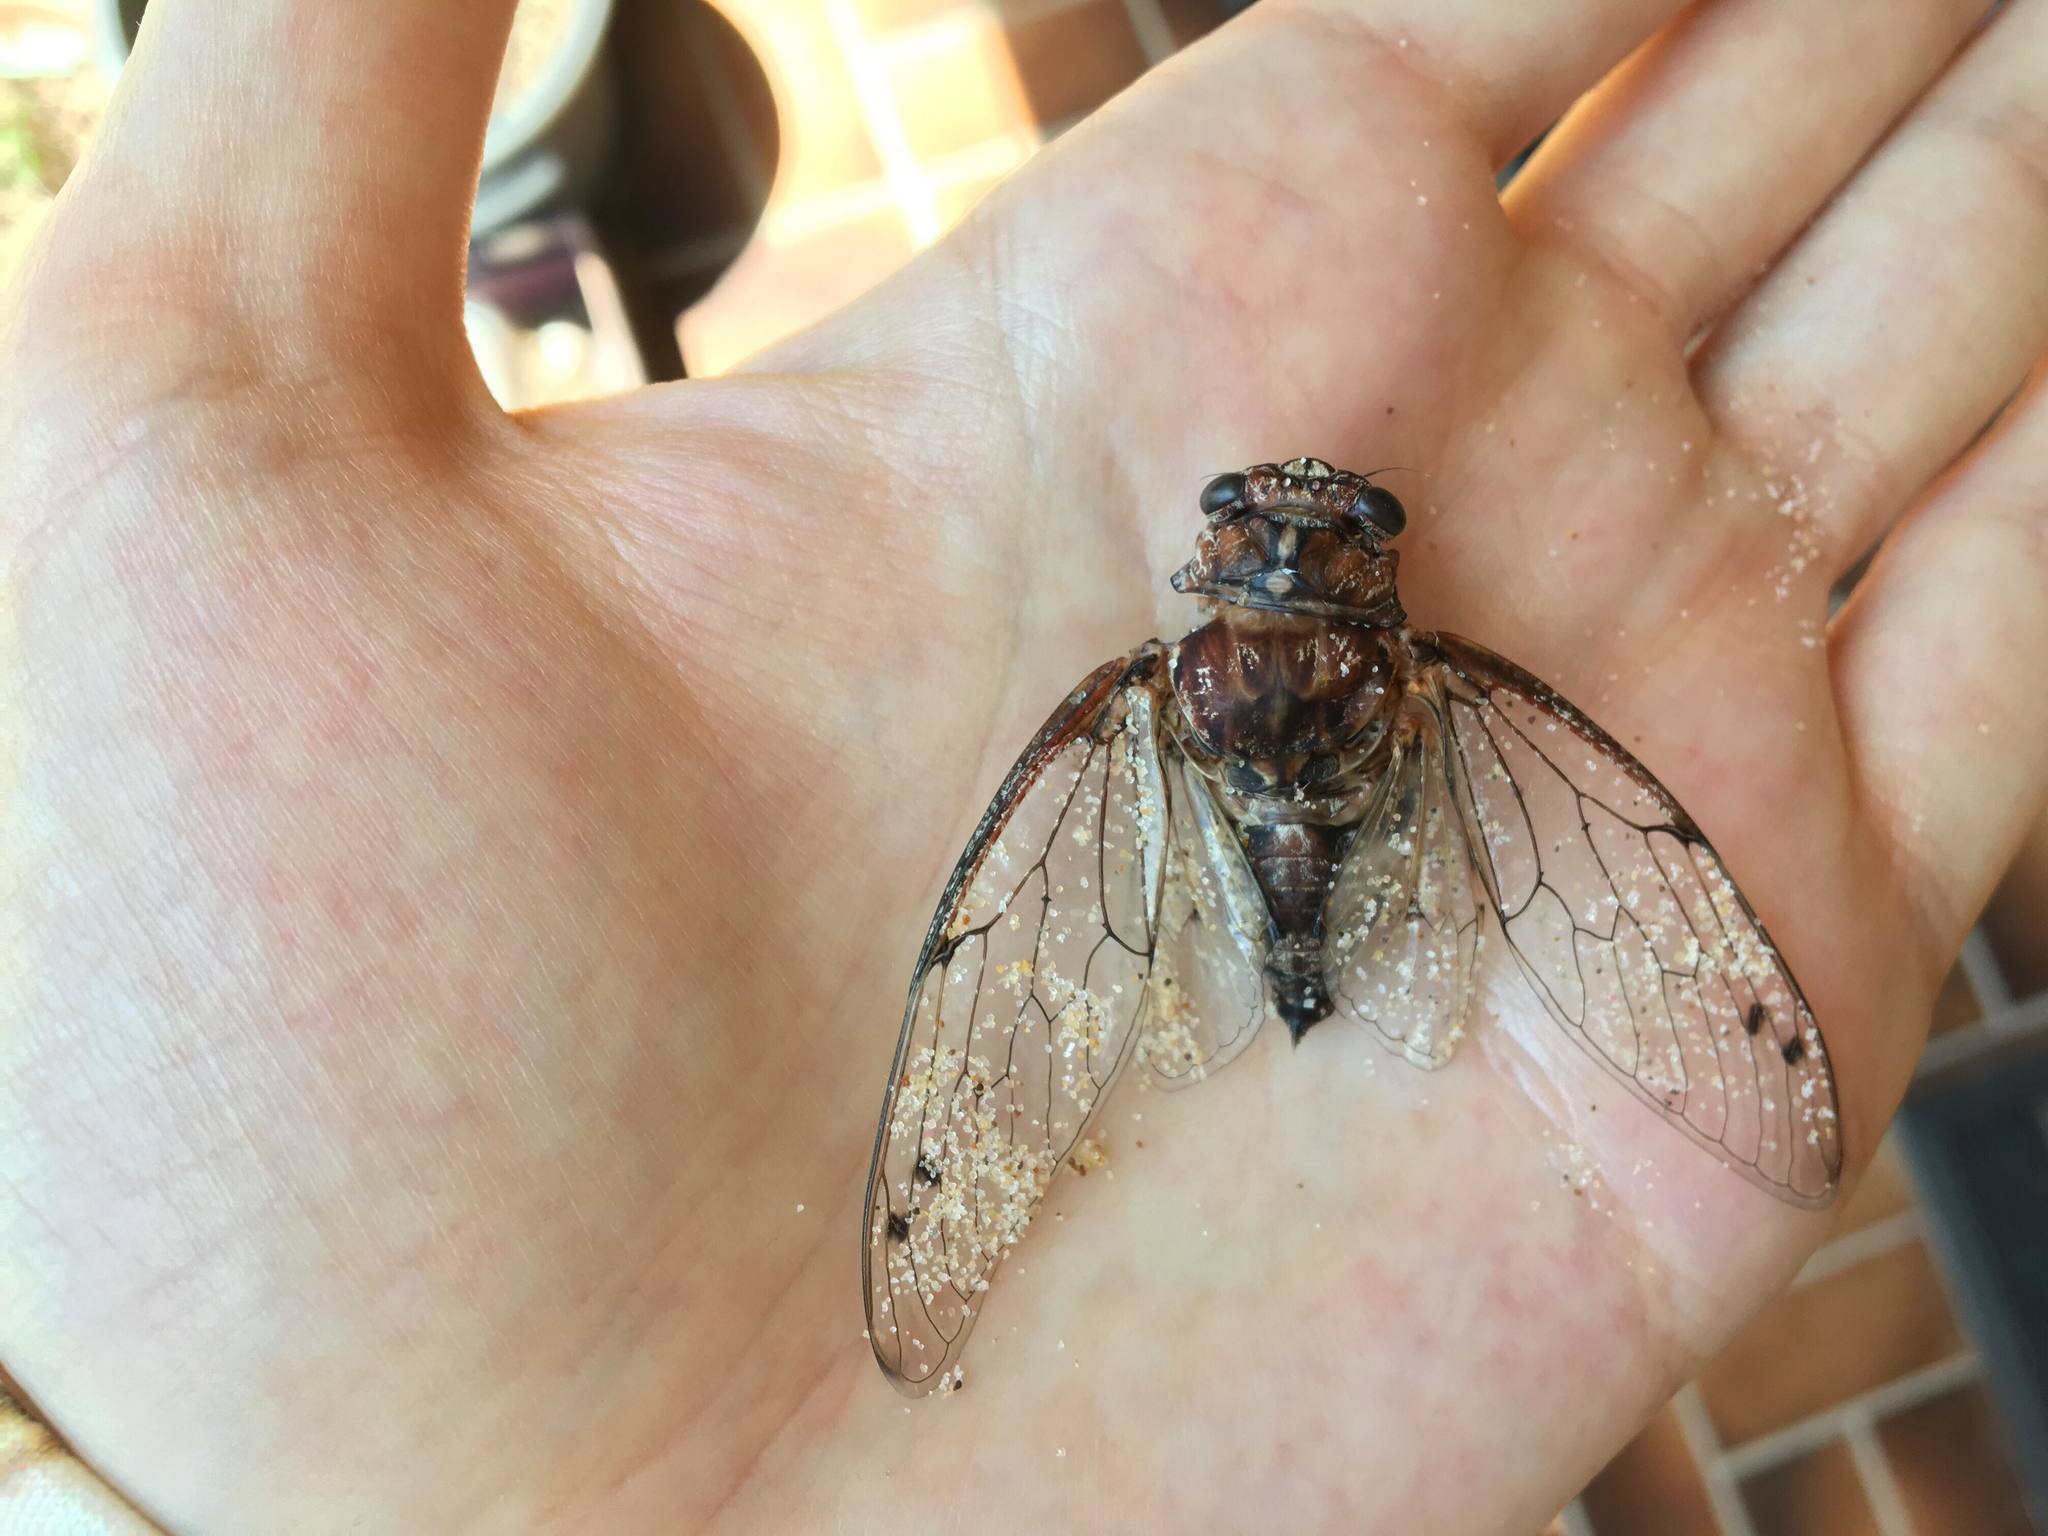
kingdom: Animalia
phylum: Arthropoda
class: Insecta
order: Hemiptera
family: Cicadidae
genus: Aleeta
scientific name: Aleeta curvicosta
